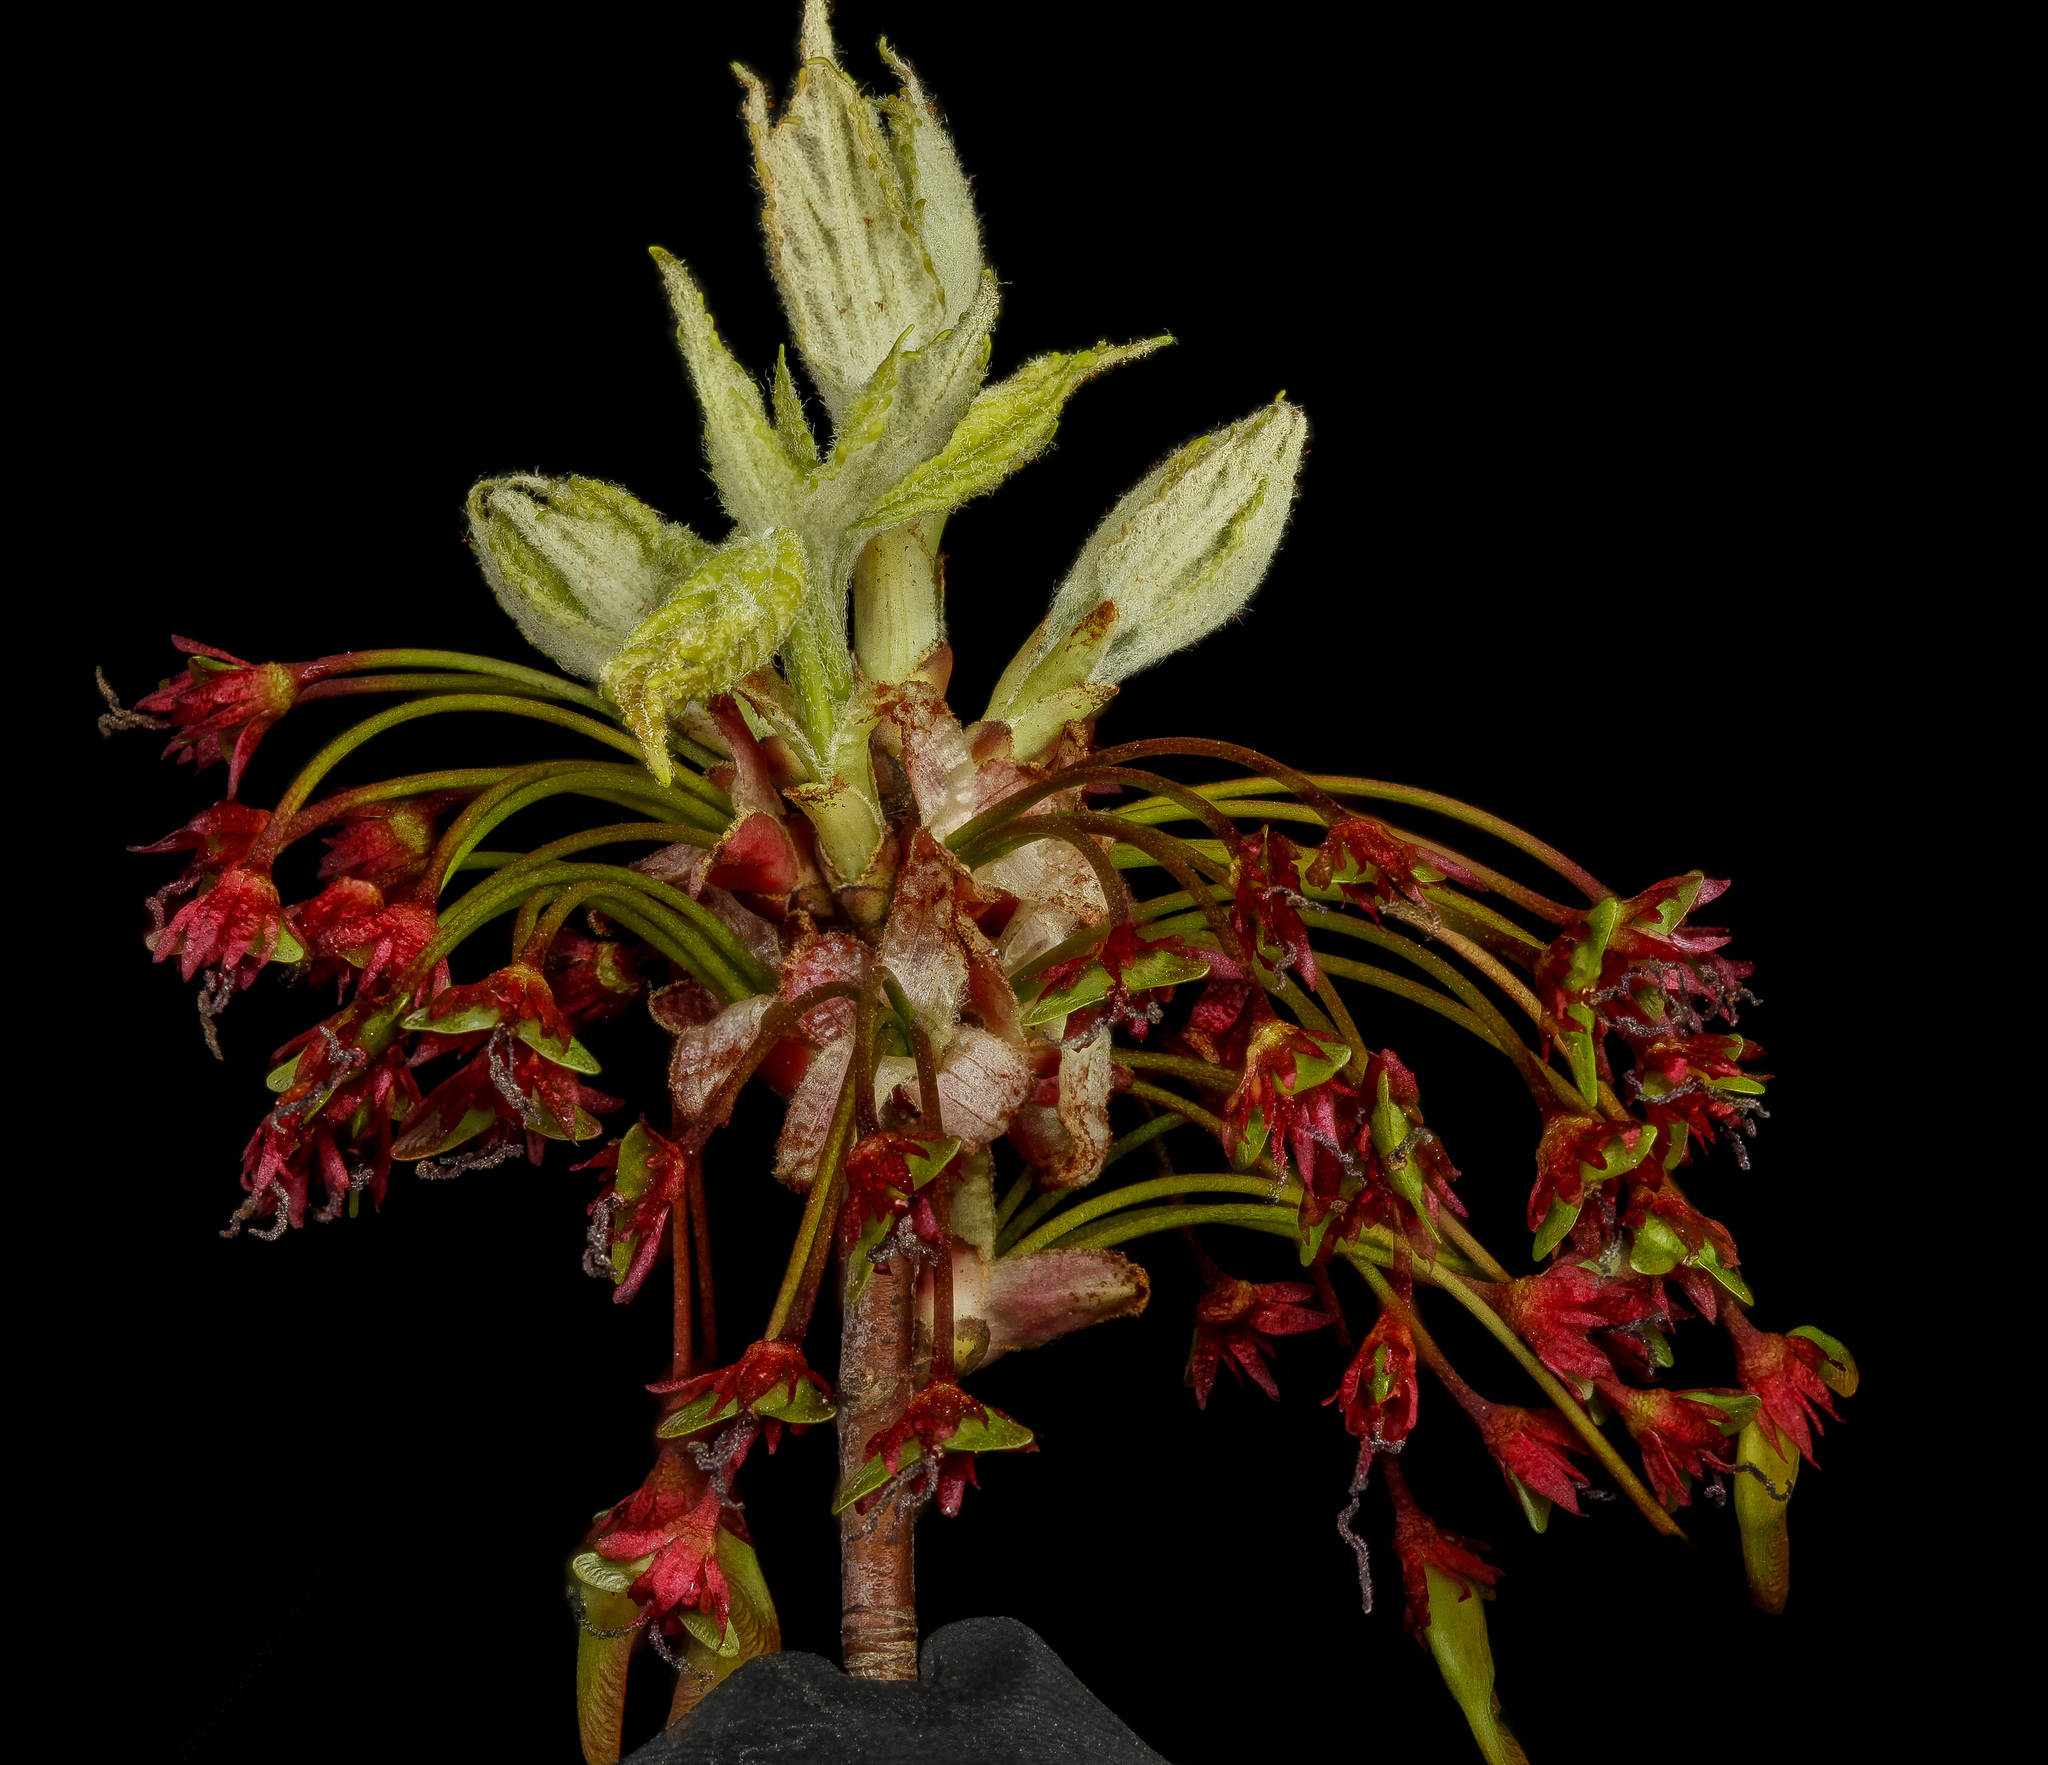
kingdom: Plantae
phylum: Tracheophyta
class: Magnoliopsida
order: Sapindales
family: Sapindaceae
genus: Acer
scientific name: Acer rubrum
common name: Red maple
